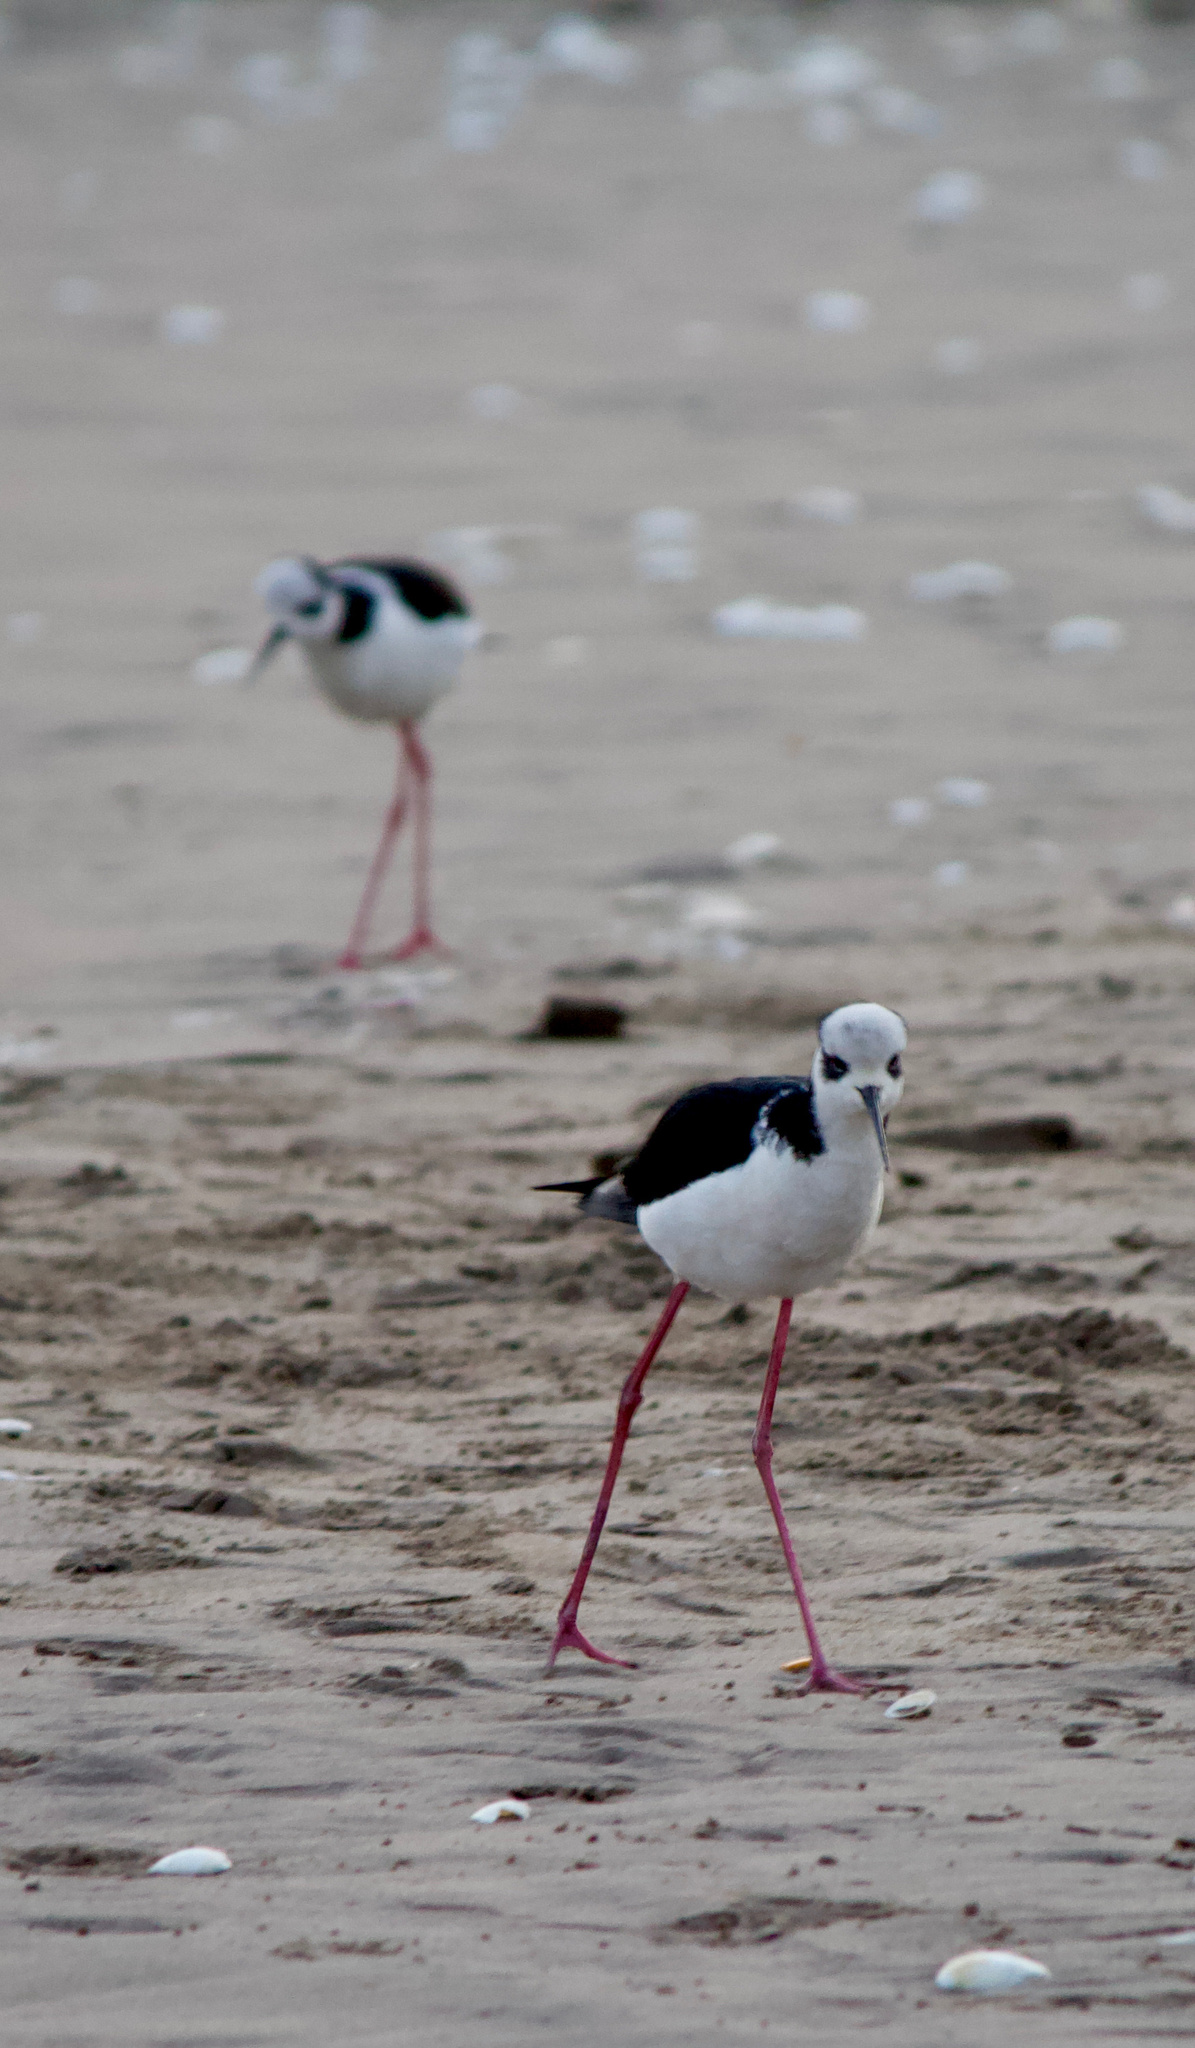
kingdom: Animalia
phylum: Chordata
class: Aves
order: Charadriiformes
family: Recurvirostridae
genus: Himantopus
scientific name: Himantopus mexicanus
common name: Black-necked stilt
